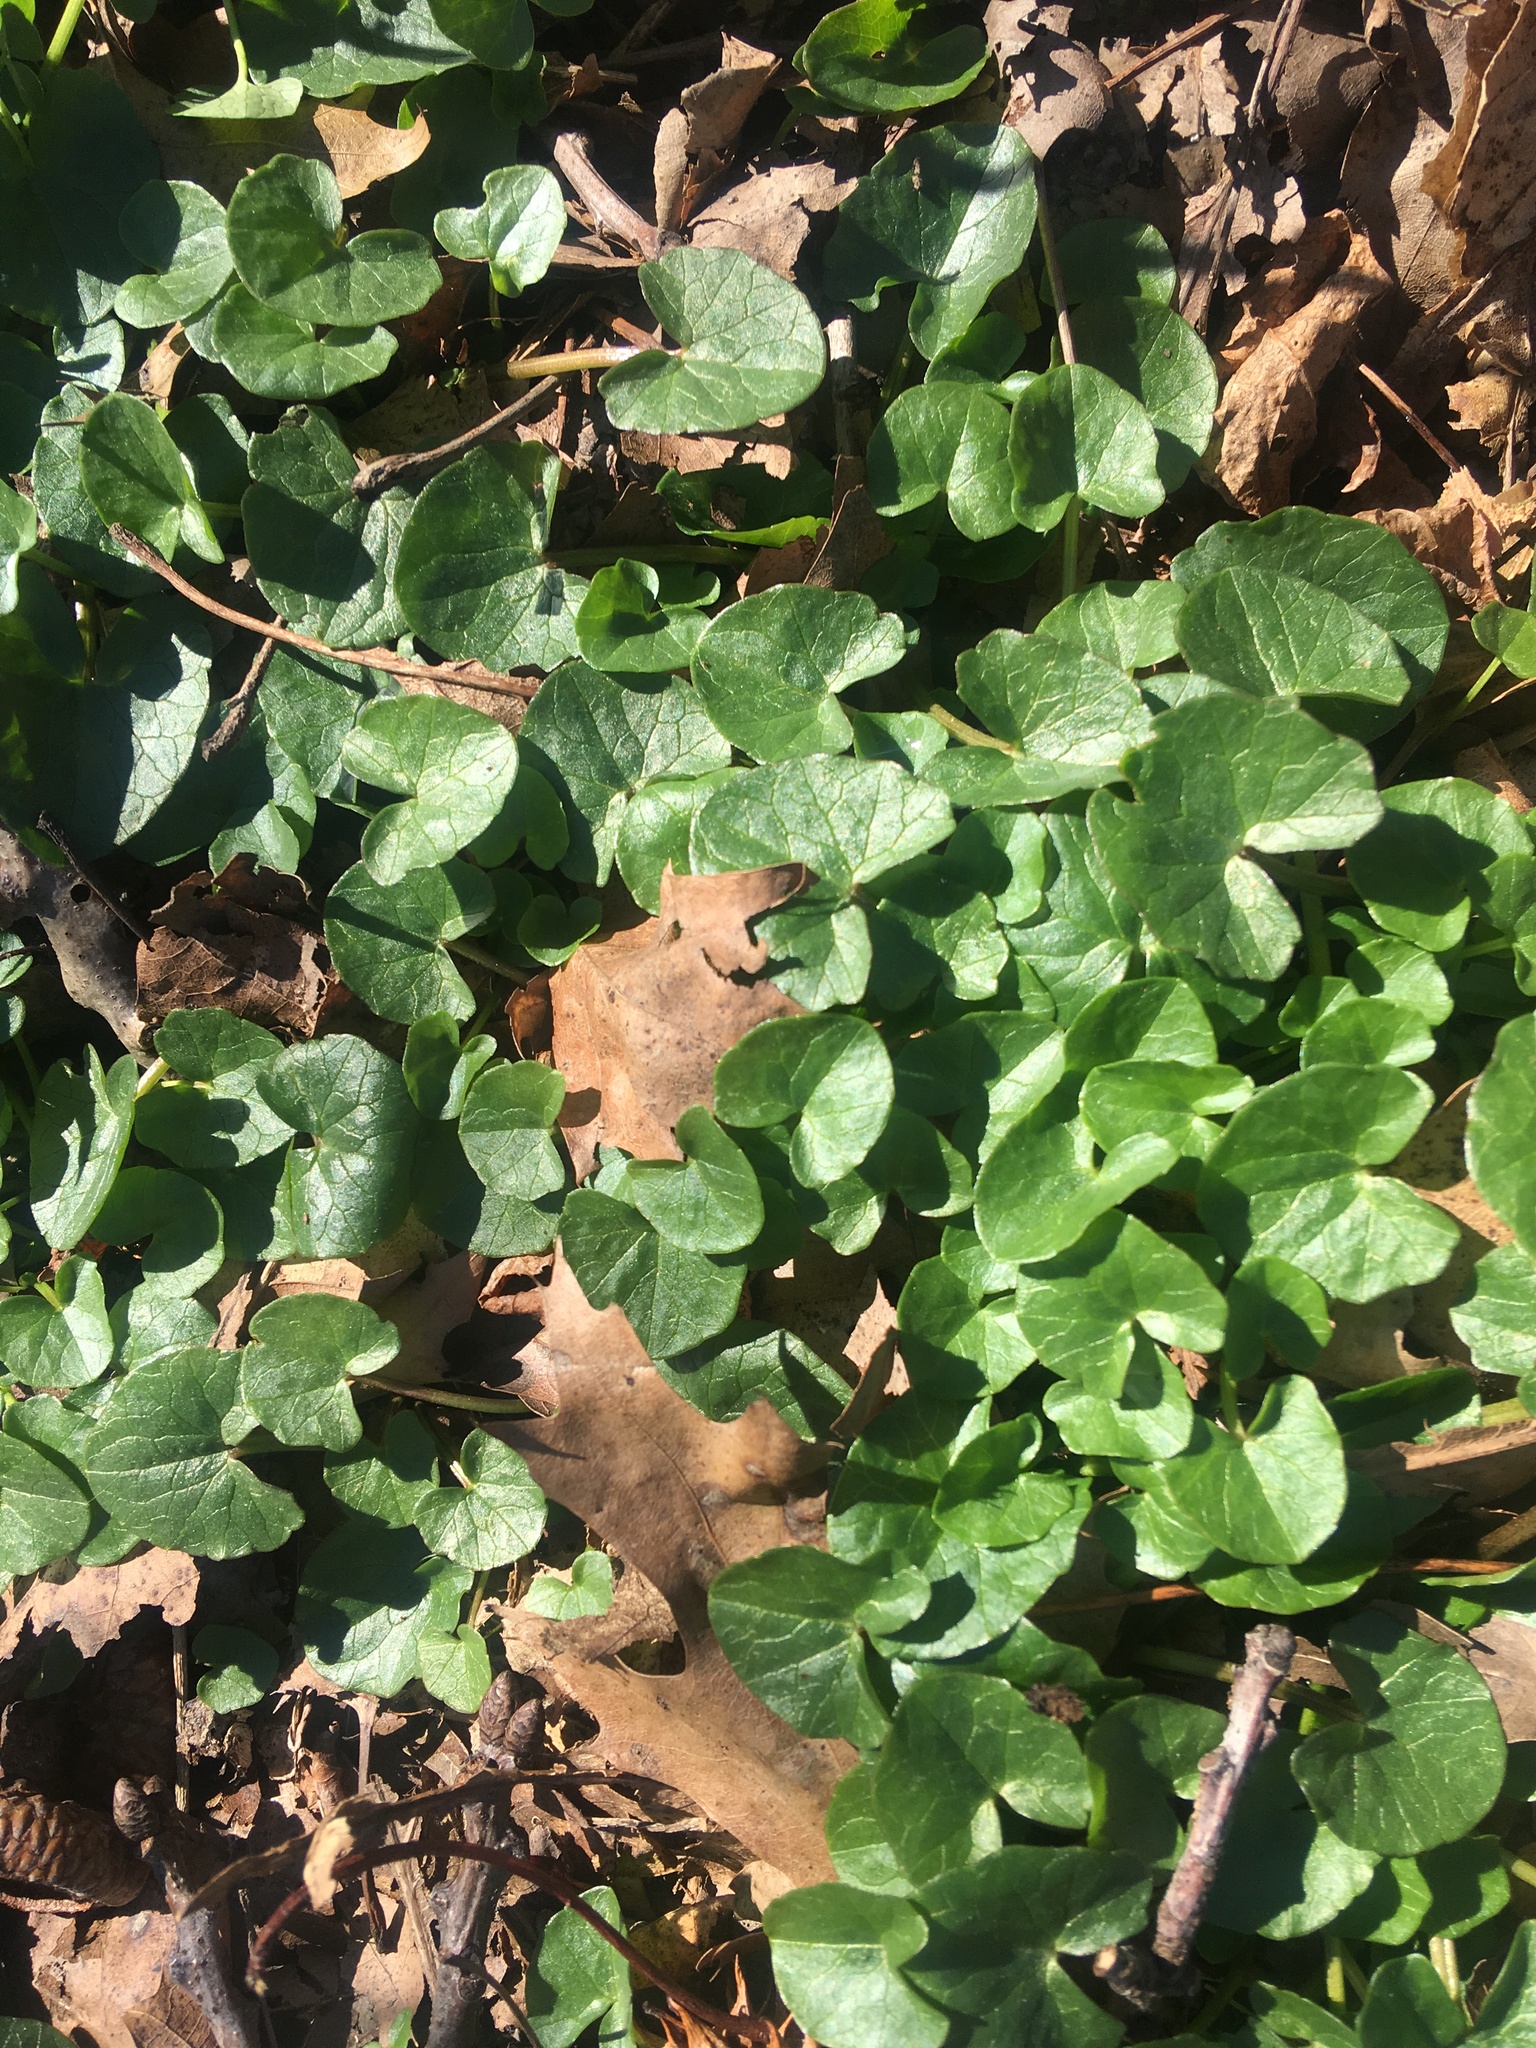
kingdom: Plantae
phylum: Tracheophyta
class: Magnoliopsida
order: Ranunculales
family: Ranunculaceae
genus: Ficaria
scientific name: Ficaria verna
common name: Lesser celandine
